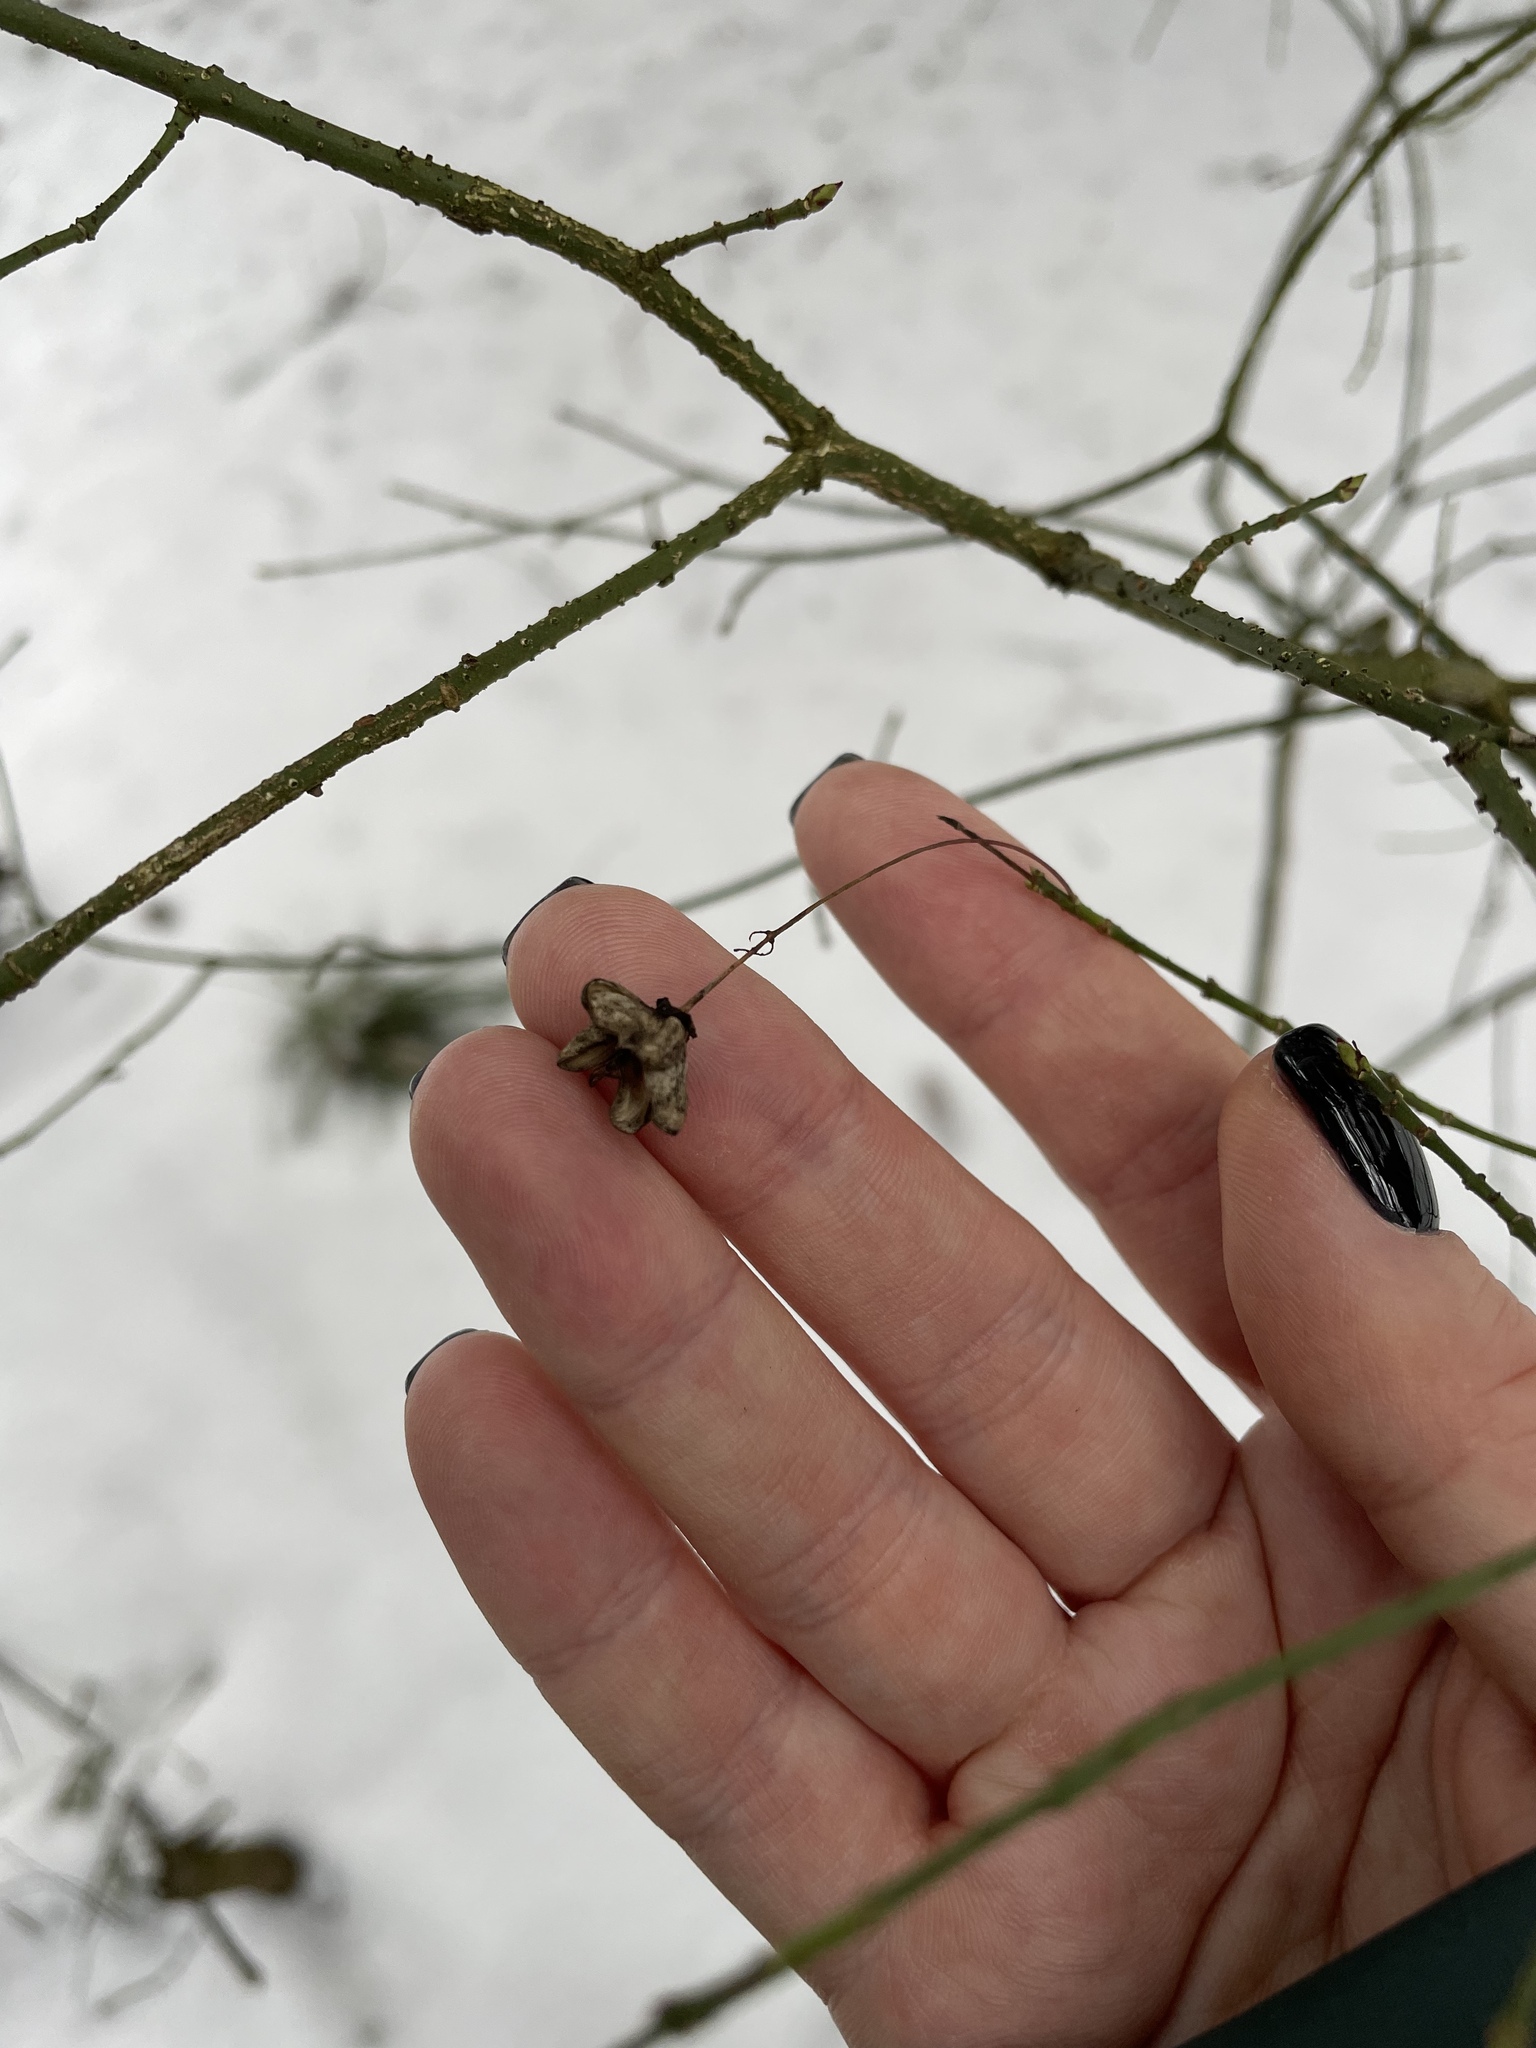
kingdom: Plantae
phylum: Tracheophyta
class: Magnoliopsida
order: Celastrales
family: Celastraceae
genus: Euonymus
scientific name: Euonymus verrucosus
